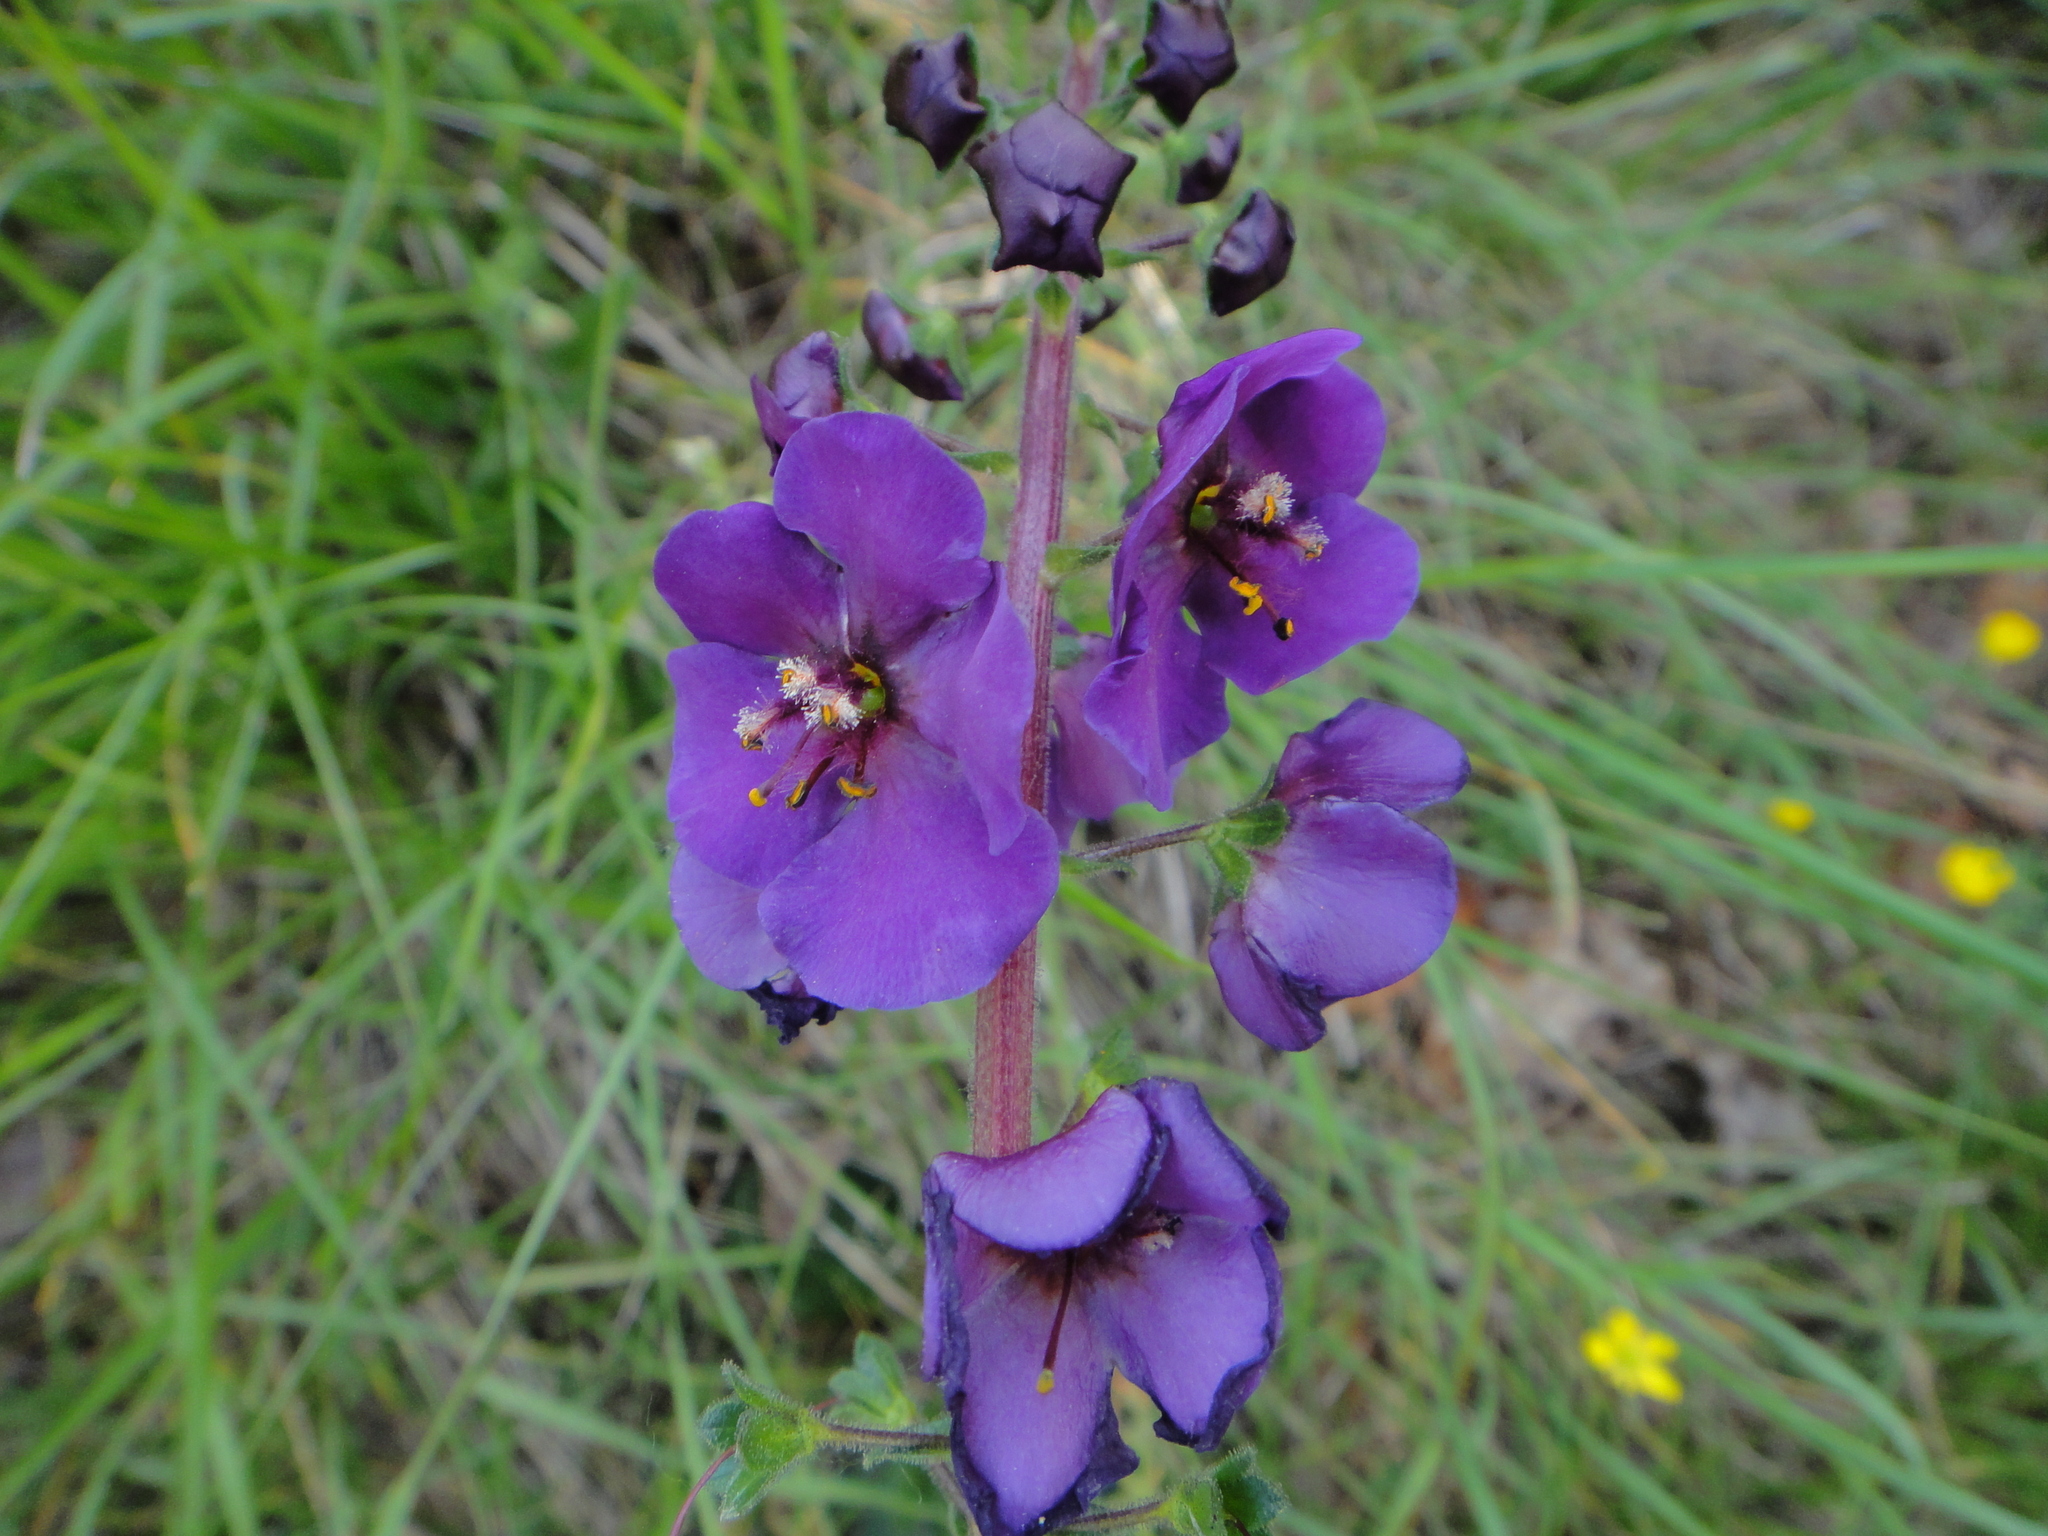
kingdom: Plantae
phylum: Tracheophyta
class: Magnoliopsida
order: Lamiales
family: Scrophulariaceae
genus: Verbascum
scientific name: Verbascum phoeniceum
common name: Purple mullein
